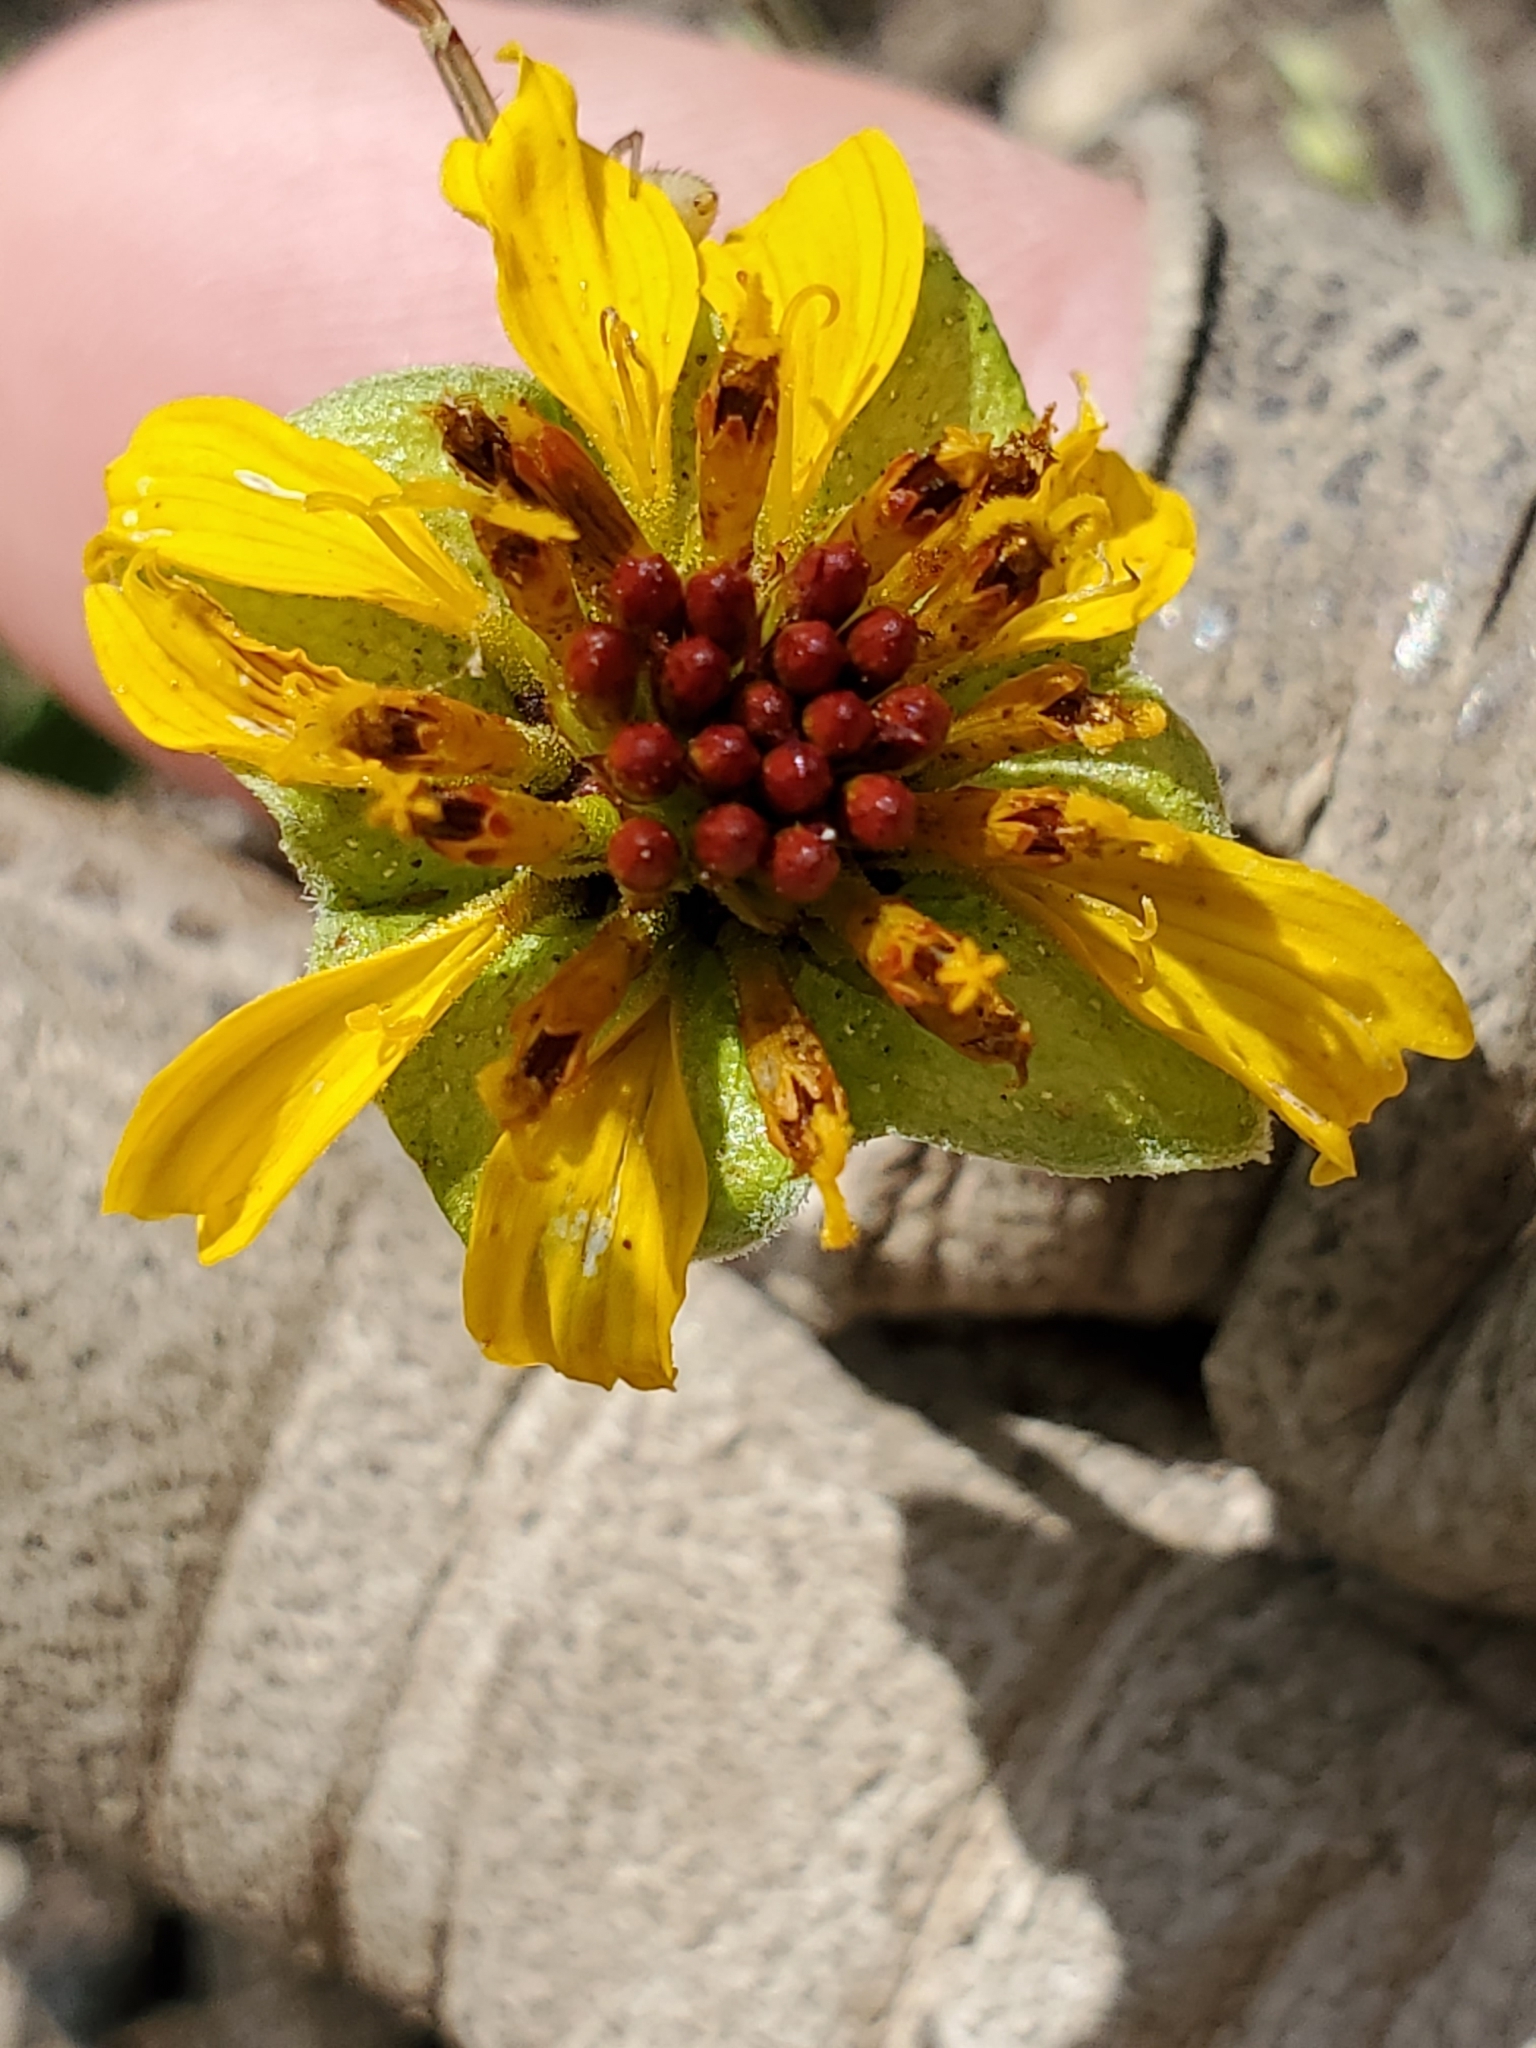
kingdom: Plantae
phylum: Tracheophyta
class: Magnoliopsida
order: Asterales
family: Asteraceae
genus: Tetragonotheca
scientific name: Tetragonotheca texana
